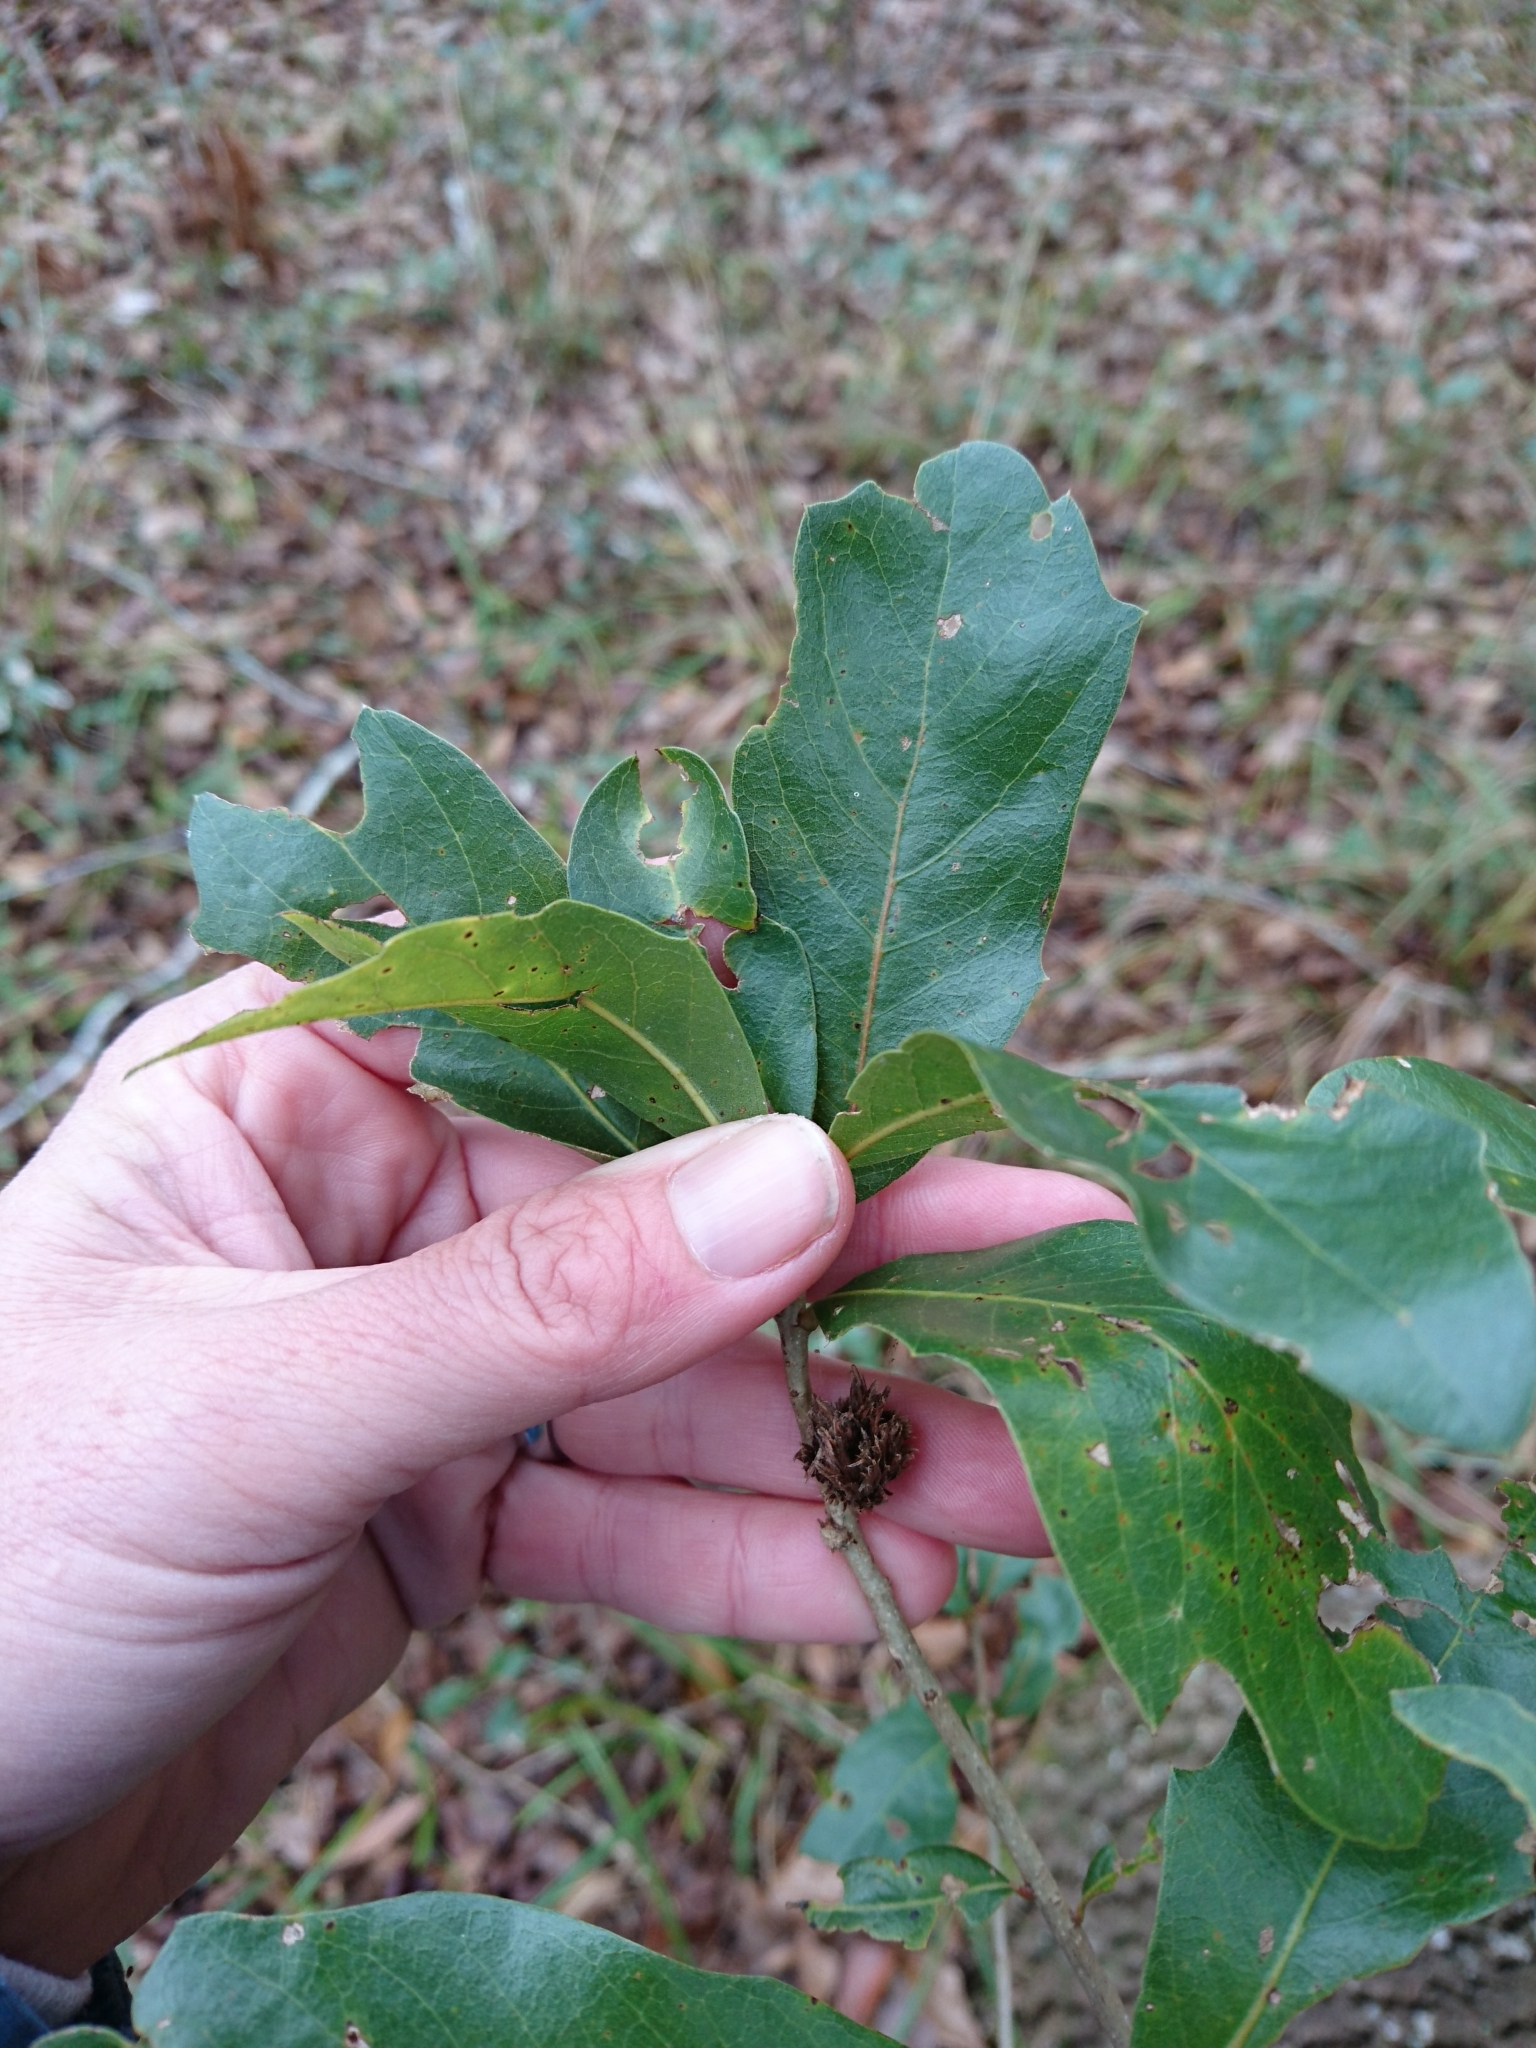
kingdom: Animalia
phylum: Arthropoda
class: Insecta
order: Hymenoptera
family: Cynipidae
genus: Andricus
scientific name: Andricus quercusfoliatus
